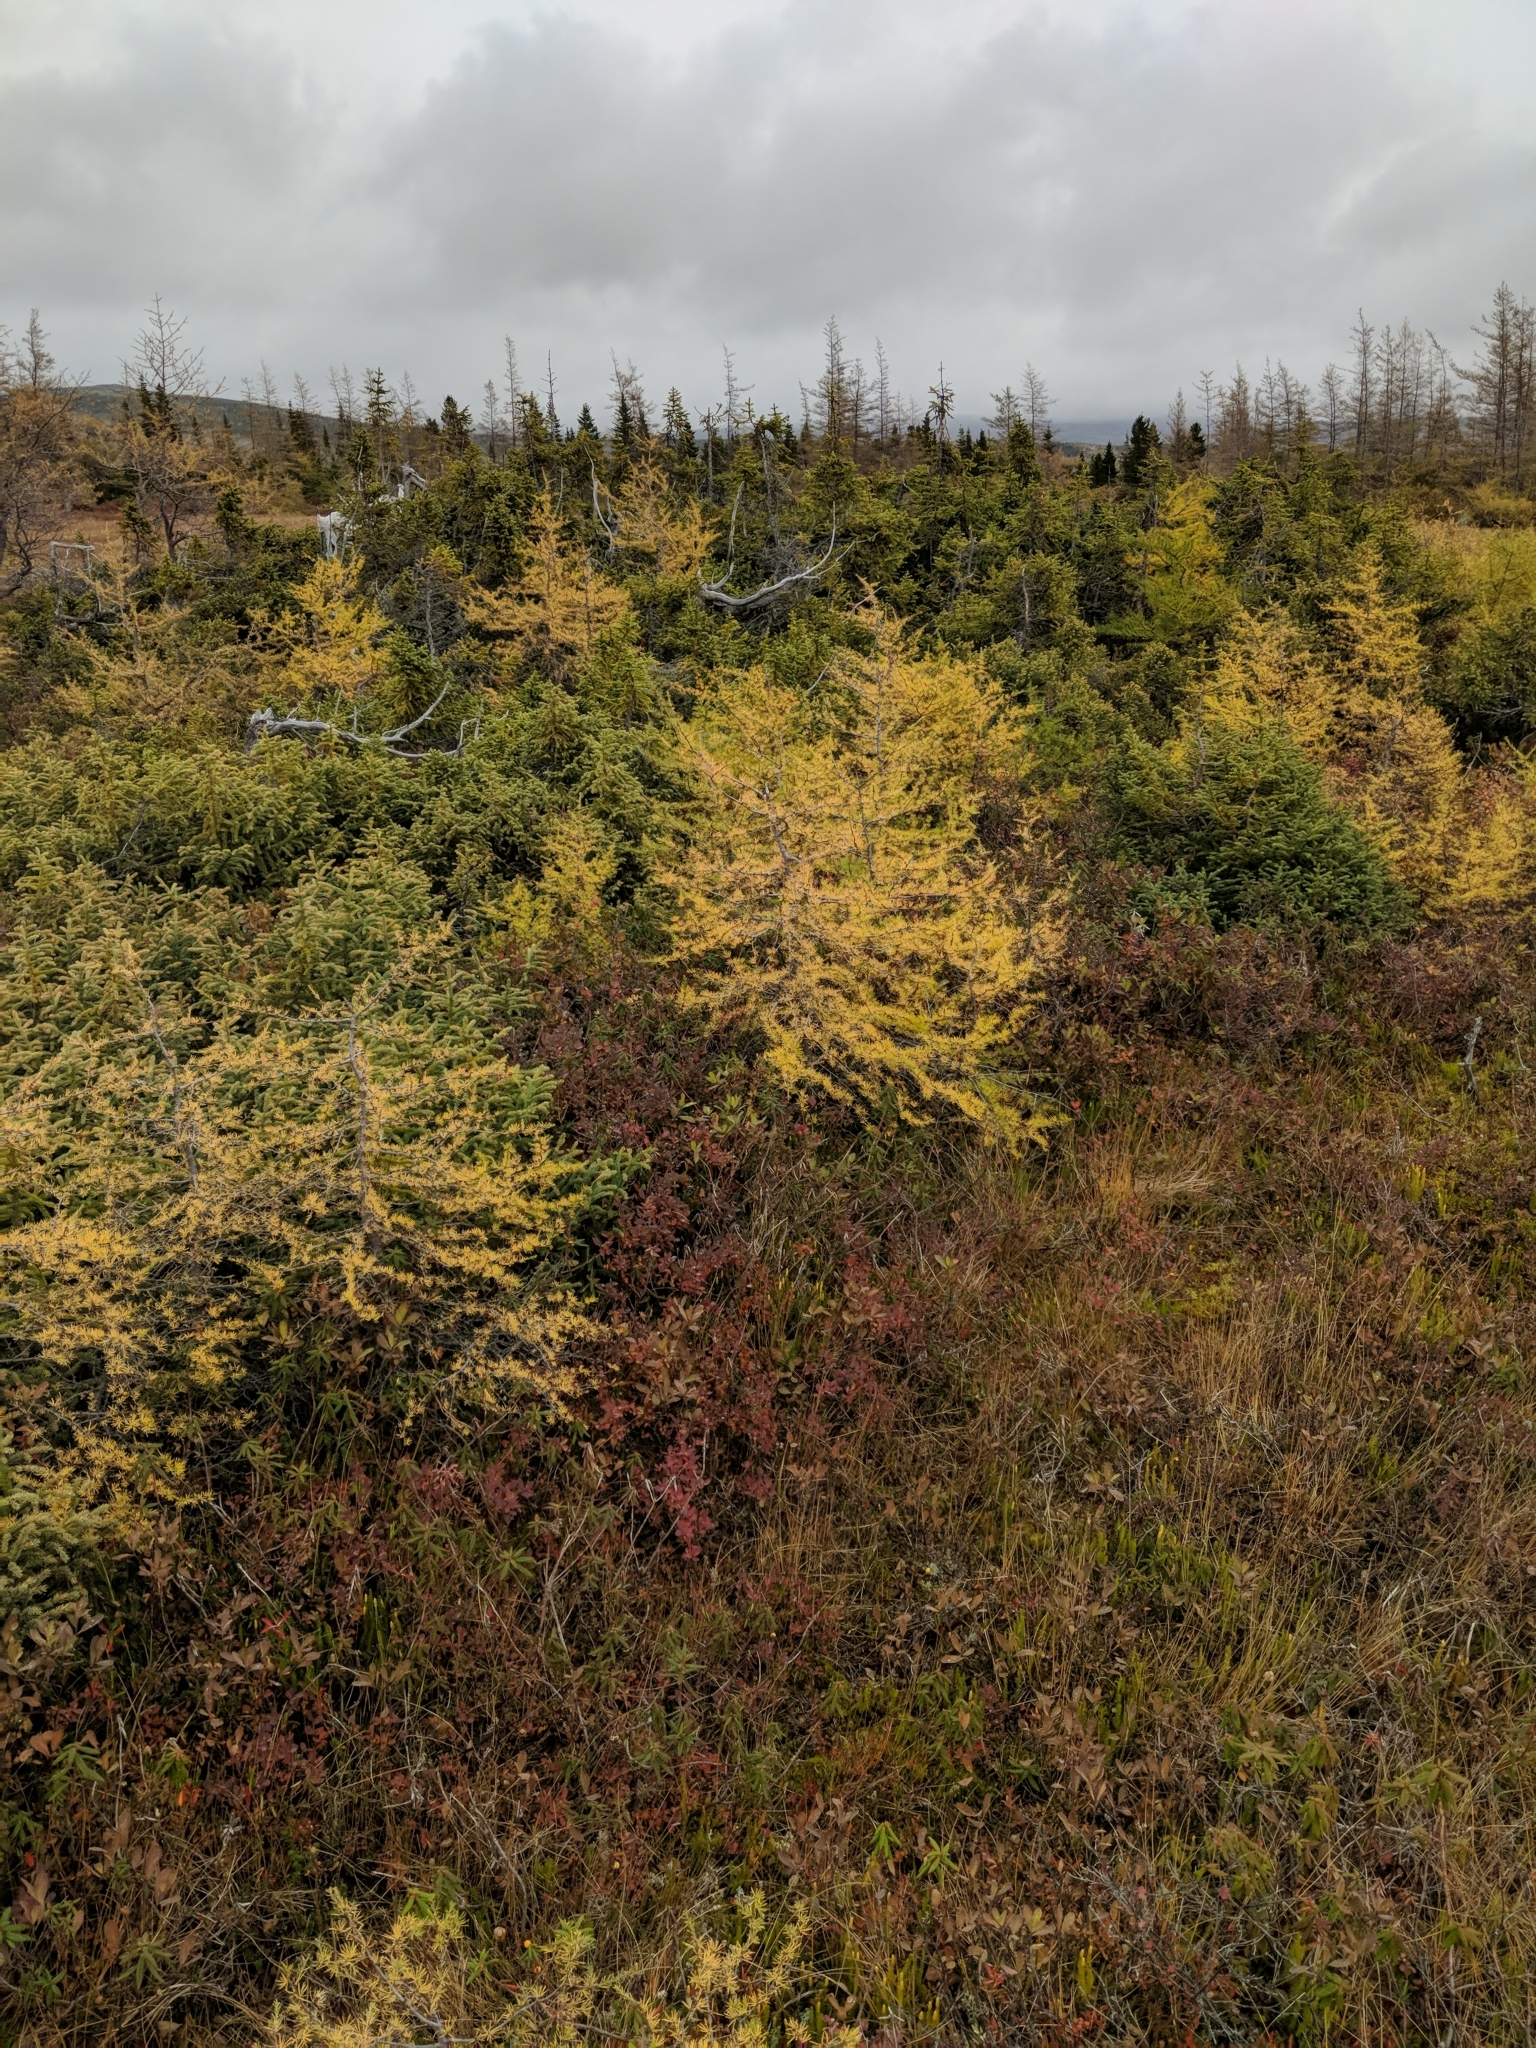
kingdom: Plantae
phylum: Tracheophyta
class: Pinopsida
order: Pinales
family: Pinaceae
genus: Larix
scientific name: Larix laricina
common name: American larch
